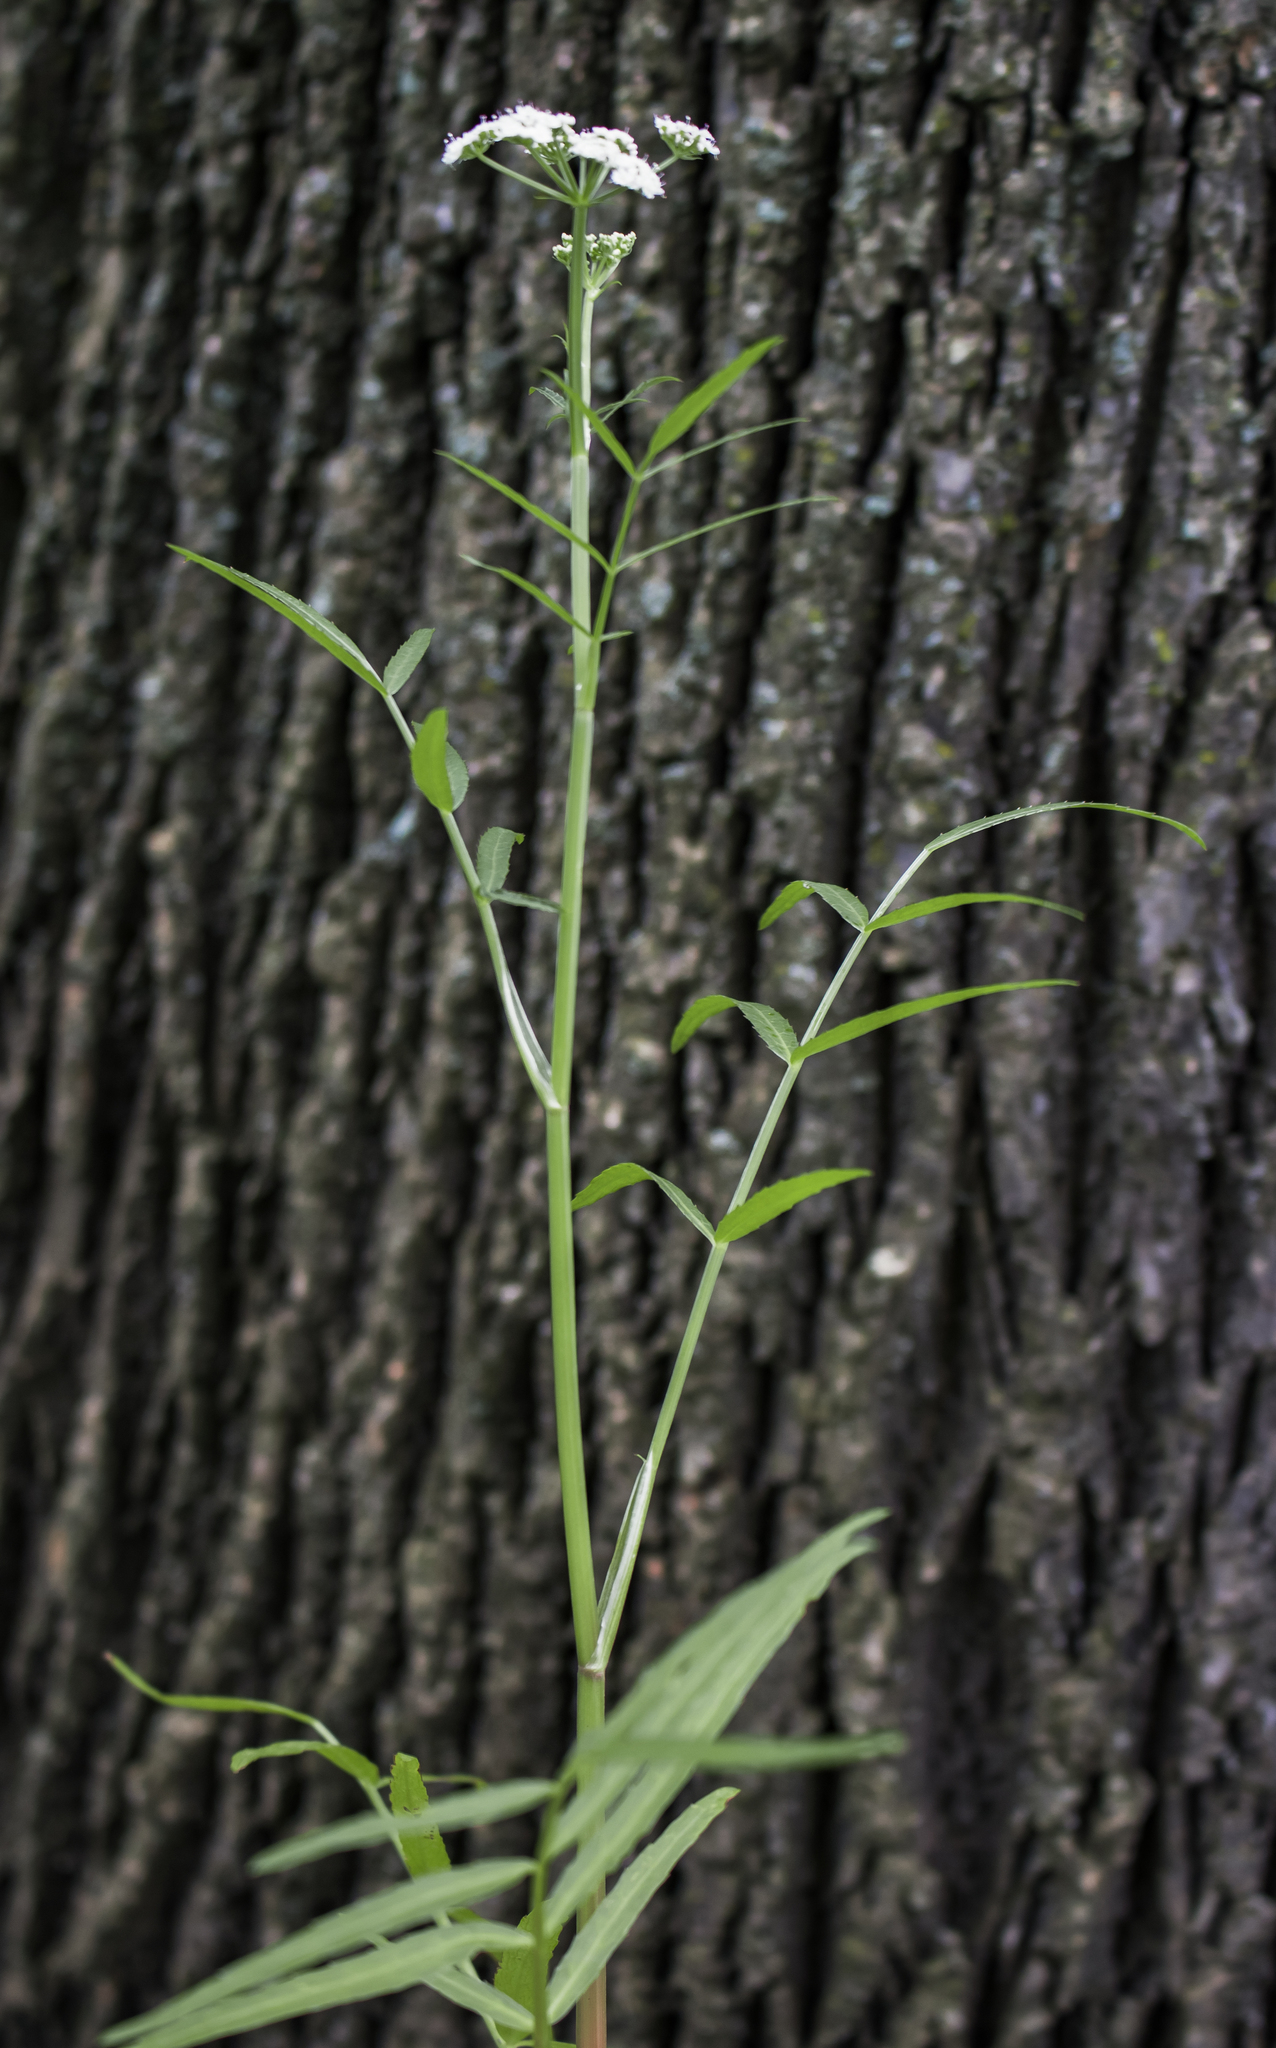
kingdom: Plantae
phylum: Tracheophyta
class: Magnoliopsida
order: Apiales
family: Apiaceae
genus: Sium
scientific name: Sium suave
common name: Hemlock water-parsnip
